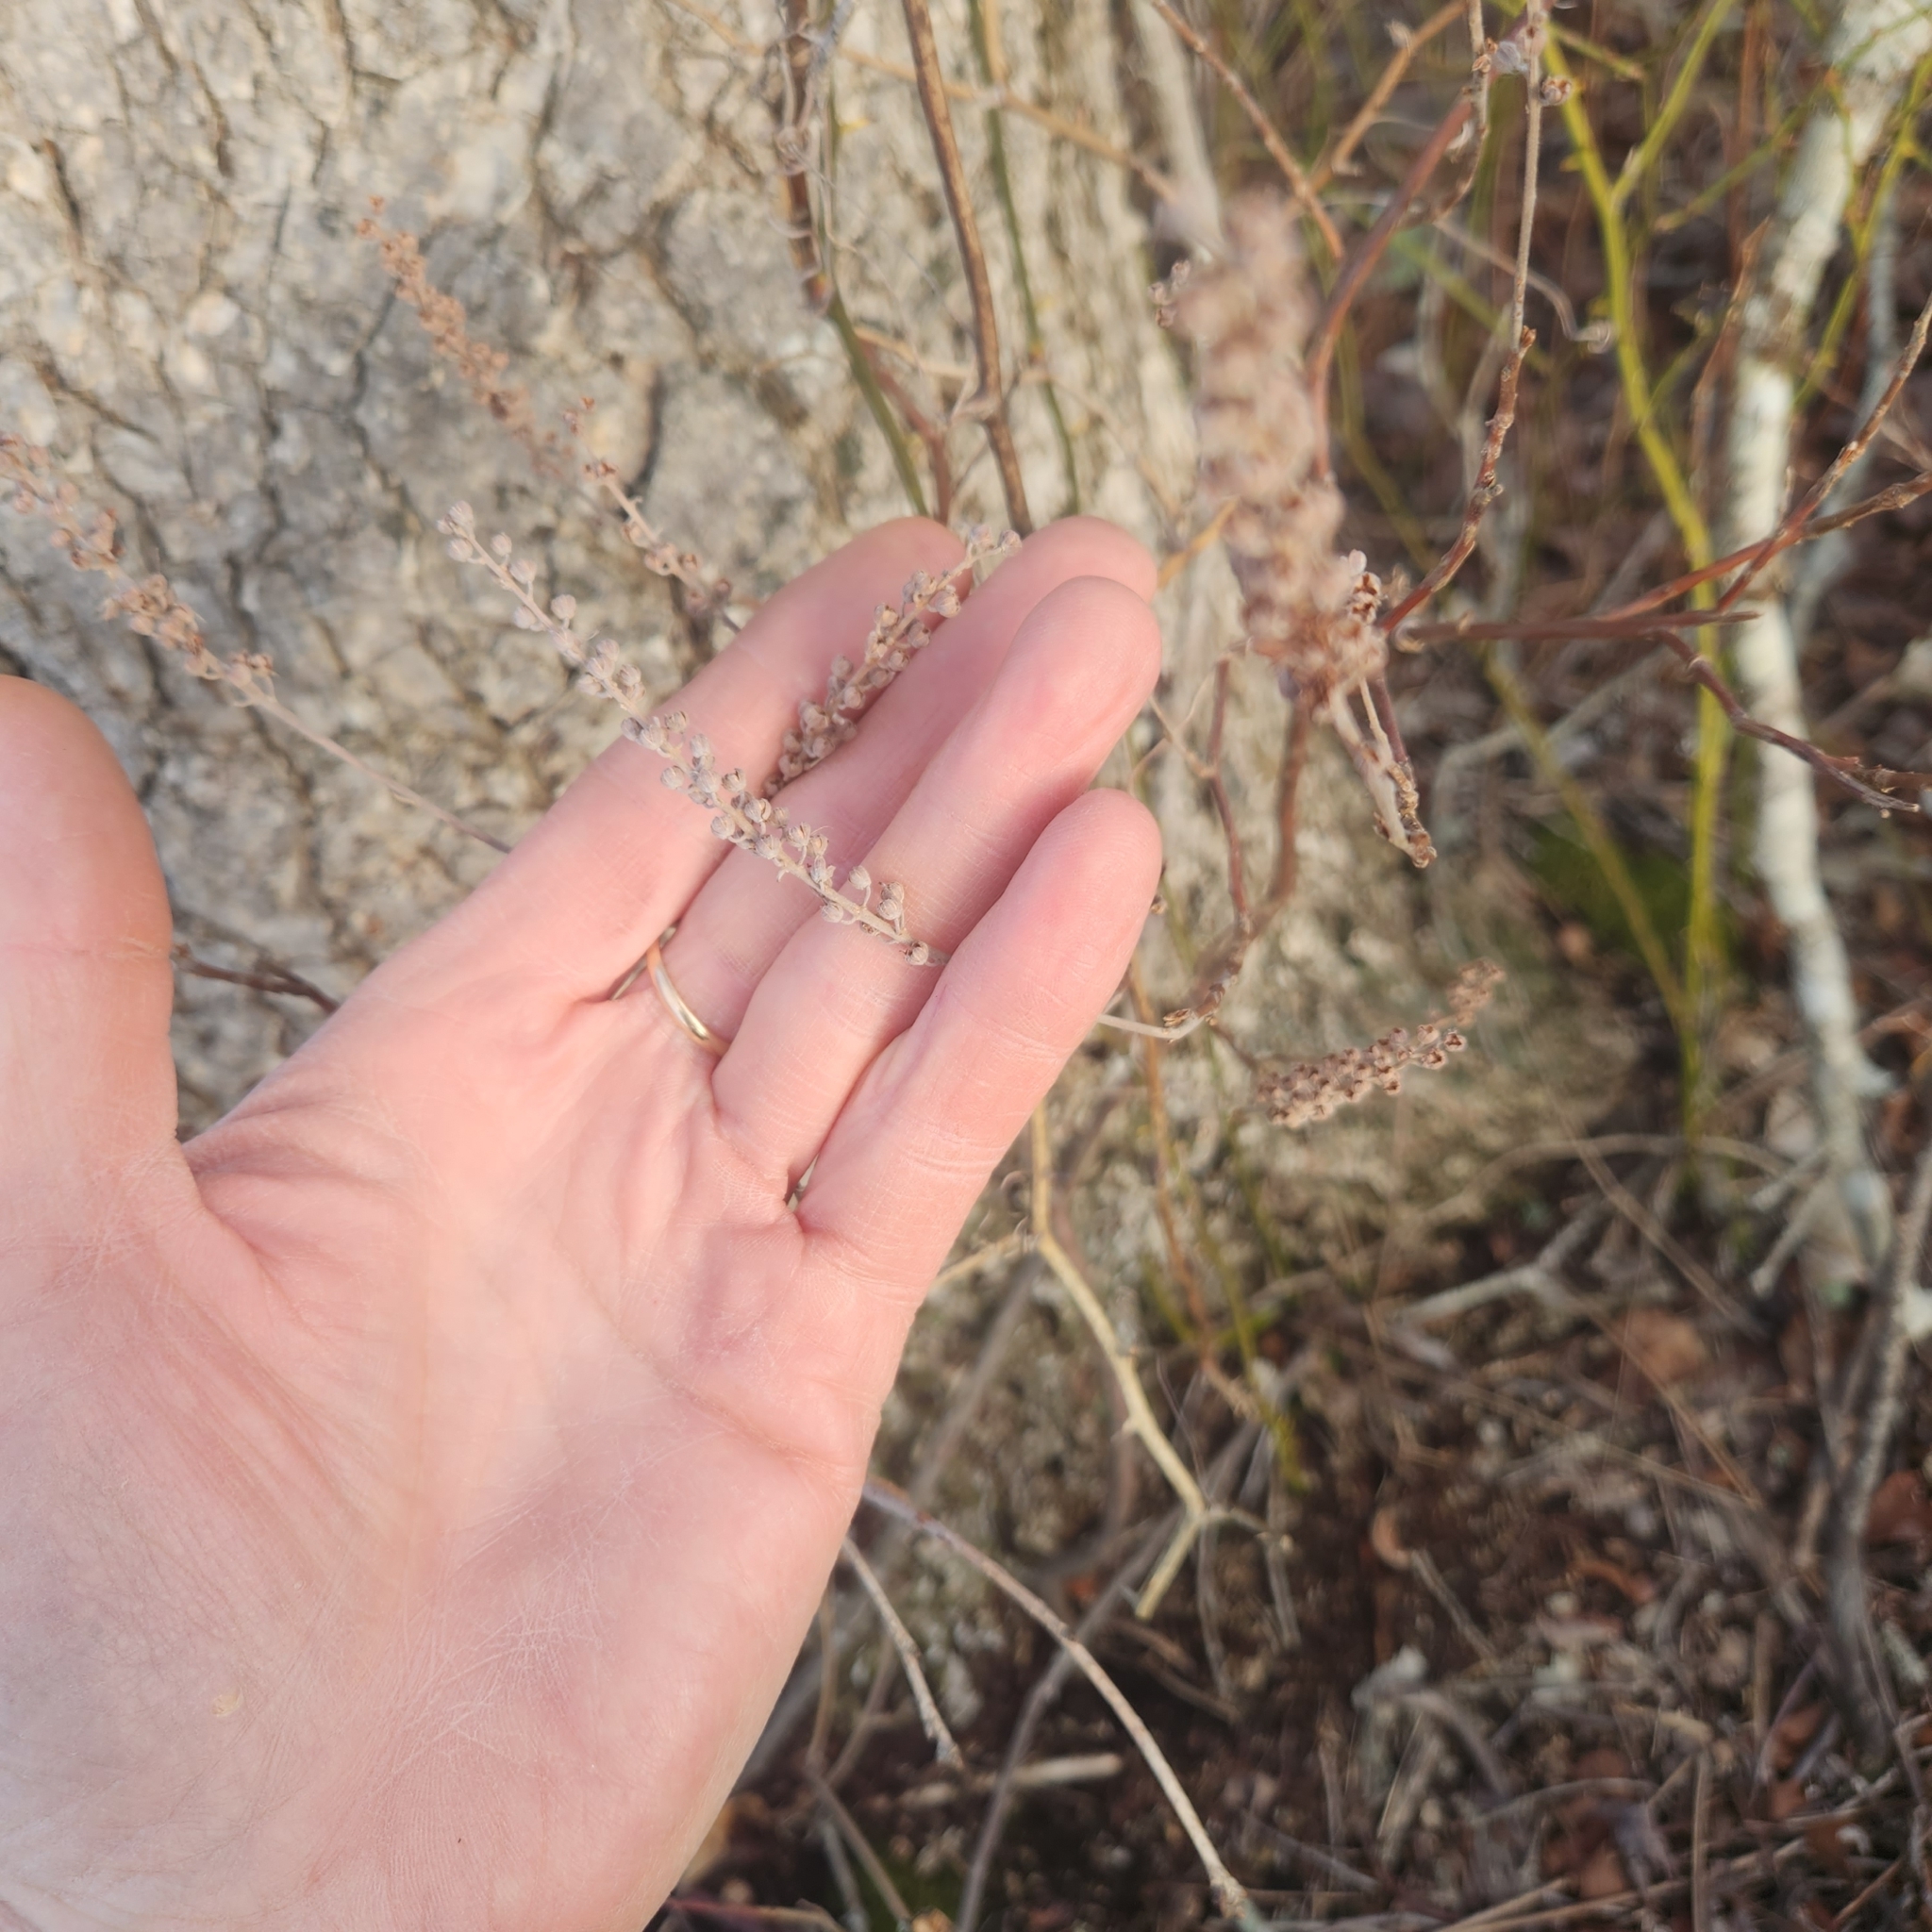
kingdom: Plantae
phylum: Tracheophyta
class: Magnoliopsida
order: Ericales
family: Clethraceae
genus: Clethra
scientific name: Clethra alnifolia
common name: Sweet pepperbush
